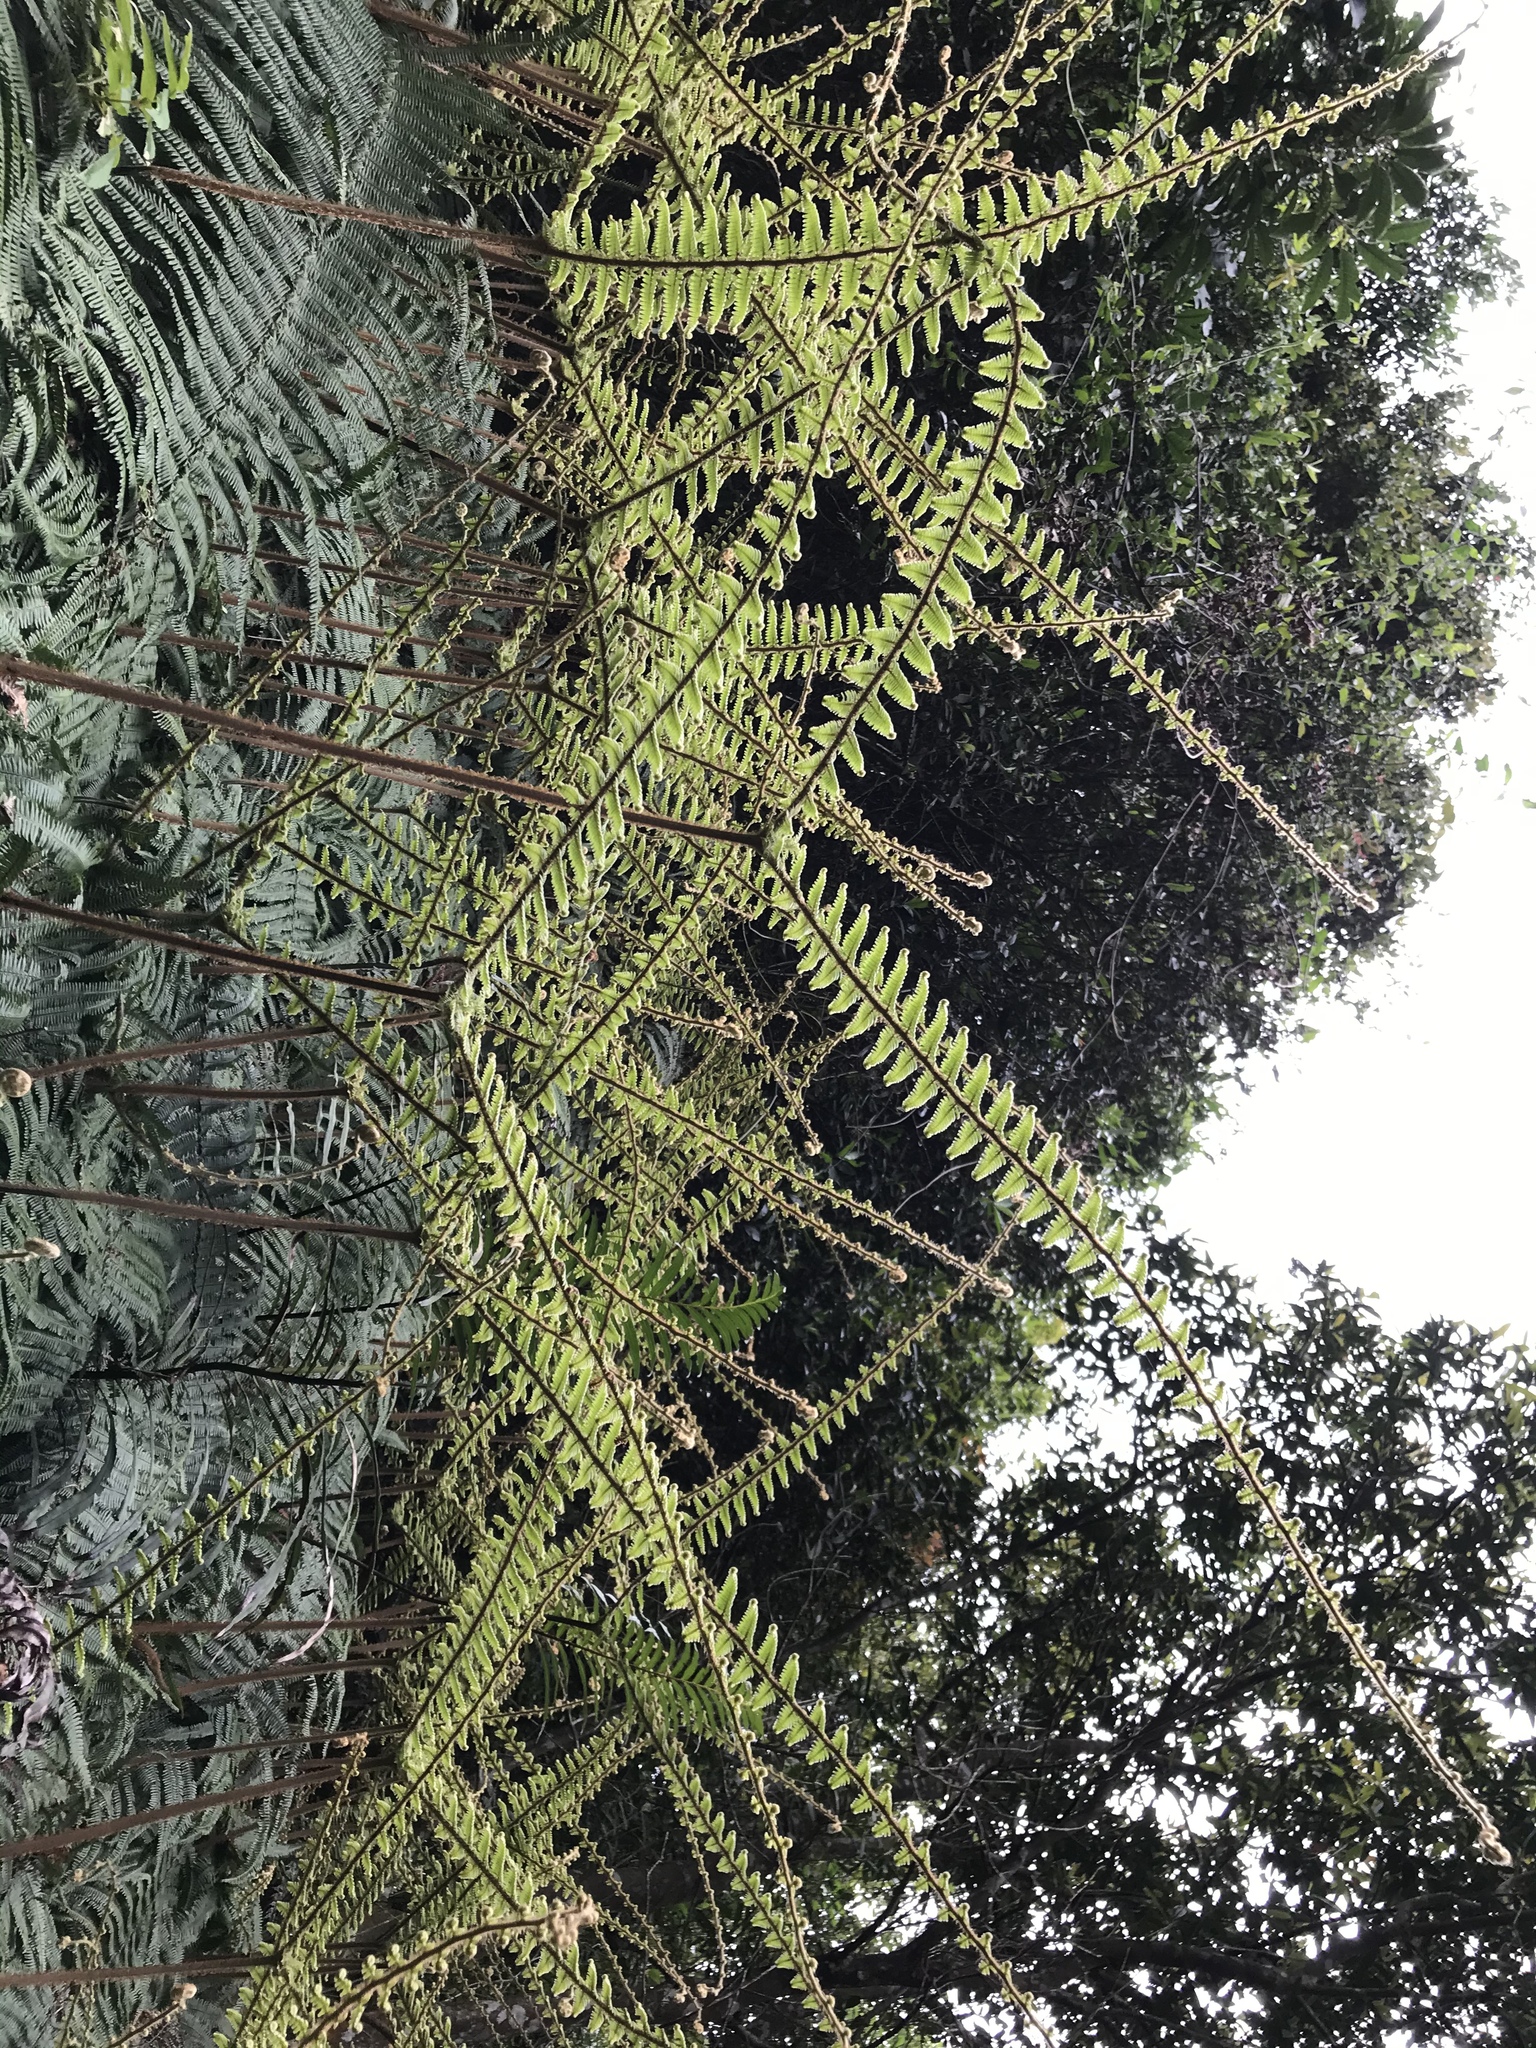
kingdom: Plantae
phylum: Tracheophyta
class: Polypodiopsida
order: Gleicheniales
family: Gleicheniaceae
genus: Diplopterygium
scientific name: Diplopterygium chinense
